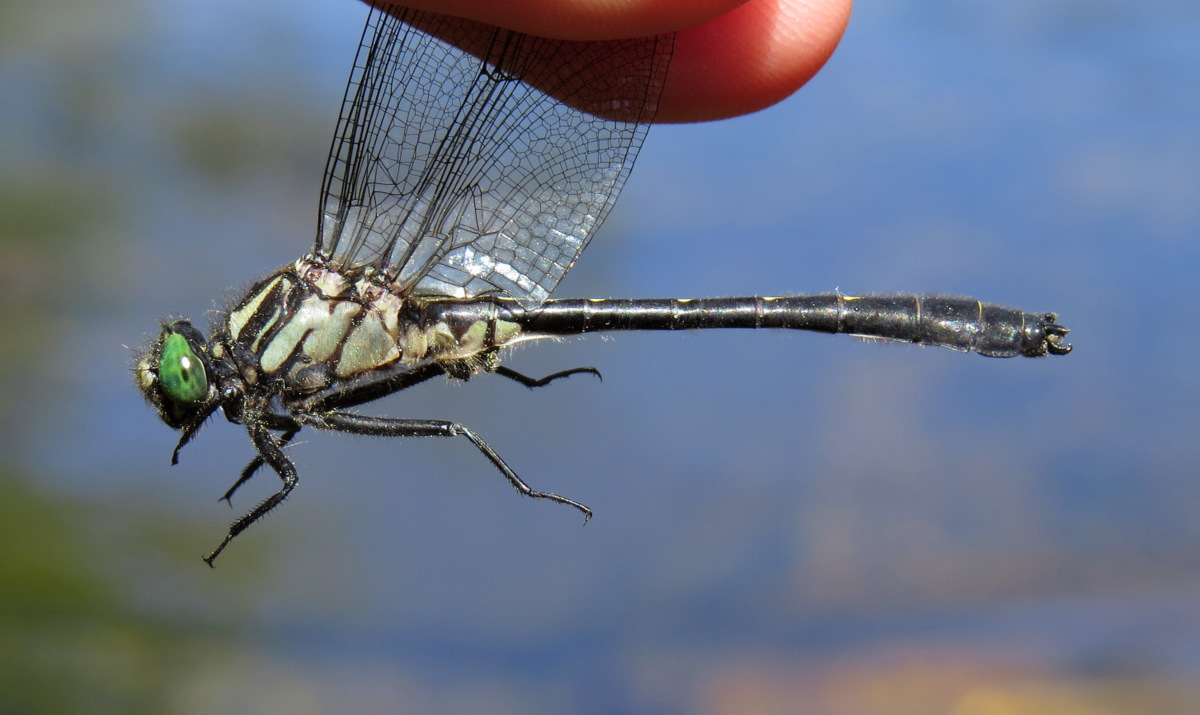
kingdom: Animalia
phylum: Arthropoda
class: Insecta
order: Odonata
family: Gomphidae
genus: Hylogomphus
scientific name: Hylogomphus adelphus
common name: Mustached clubtail
